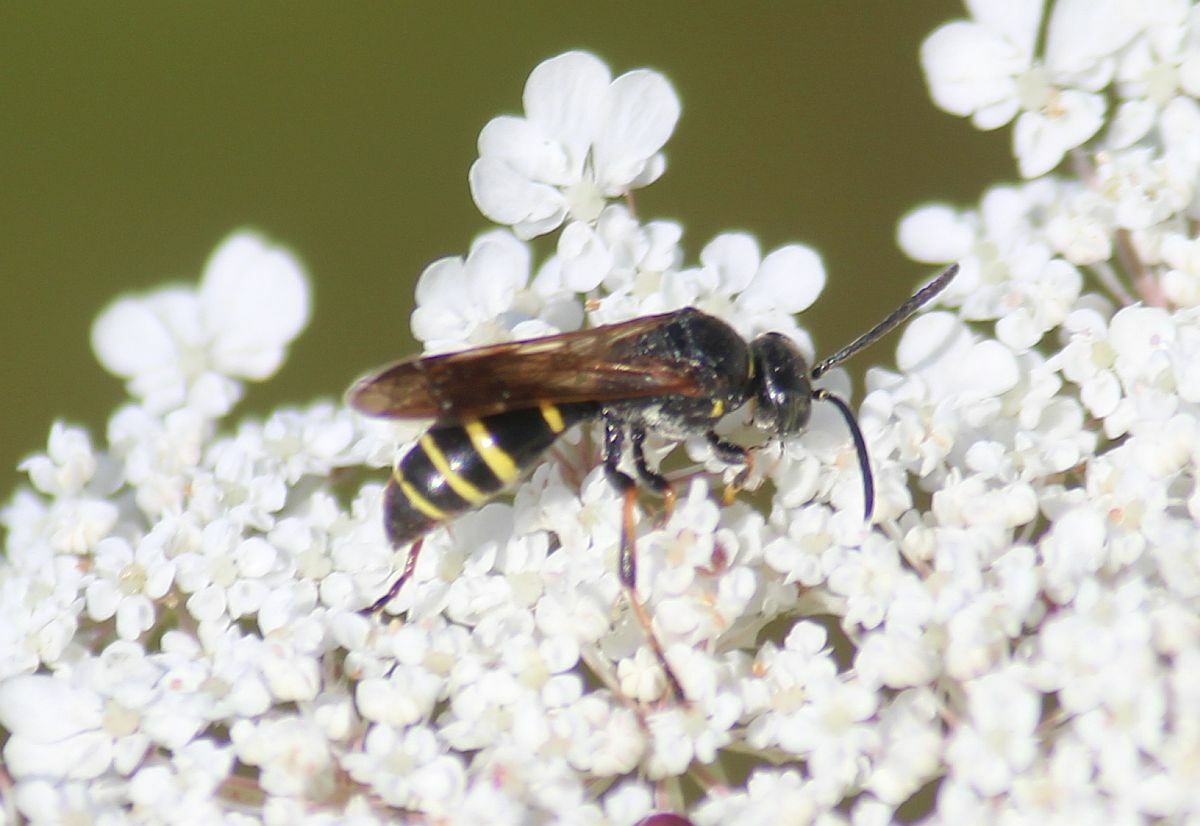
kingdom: Animalia
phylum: Arthropoda
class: Insecta
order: Hymenoptera
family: Crabronidae
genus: Gorytes
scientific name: Gorytes quadrifasciatus
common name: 4-banded digger wasp
